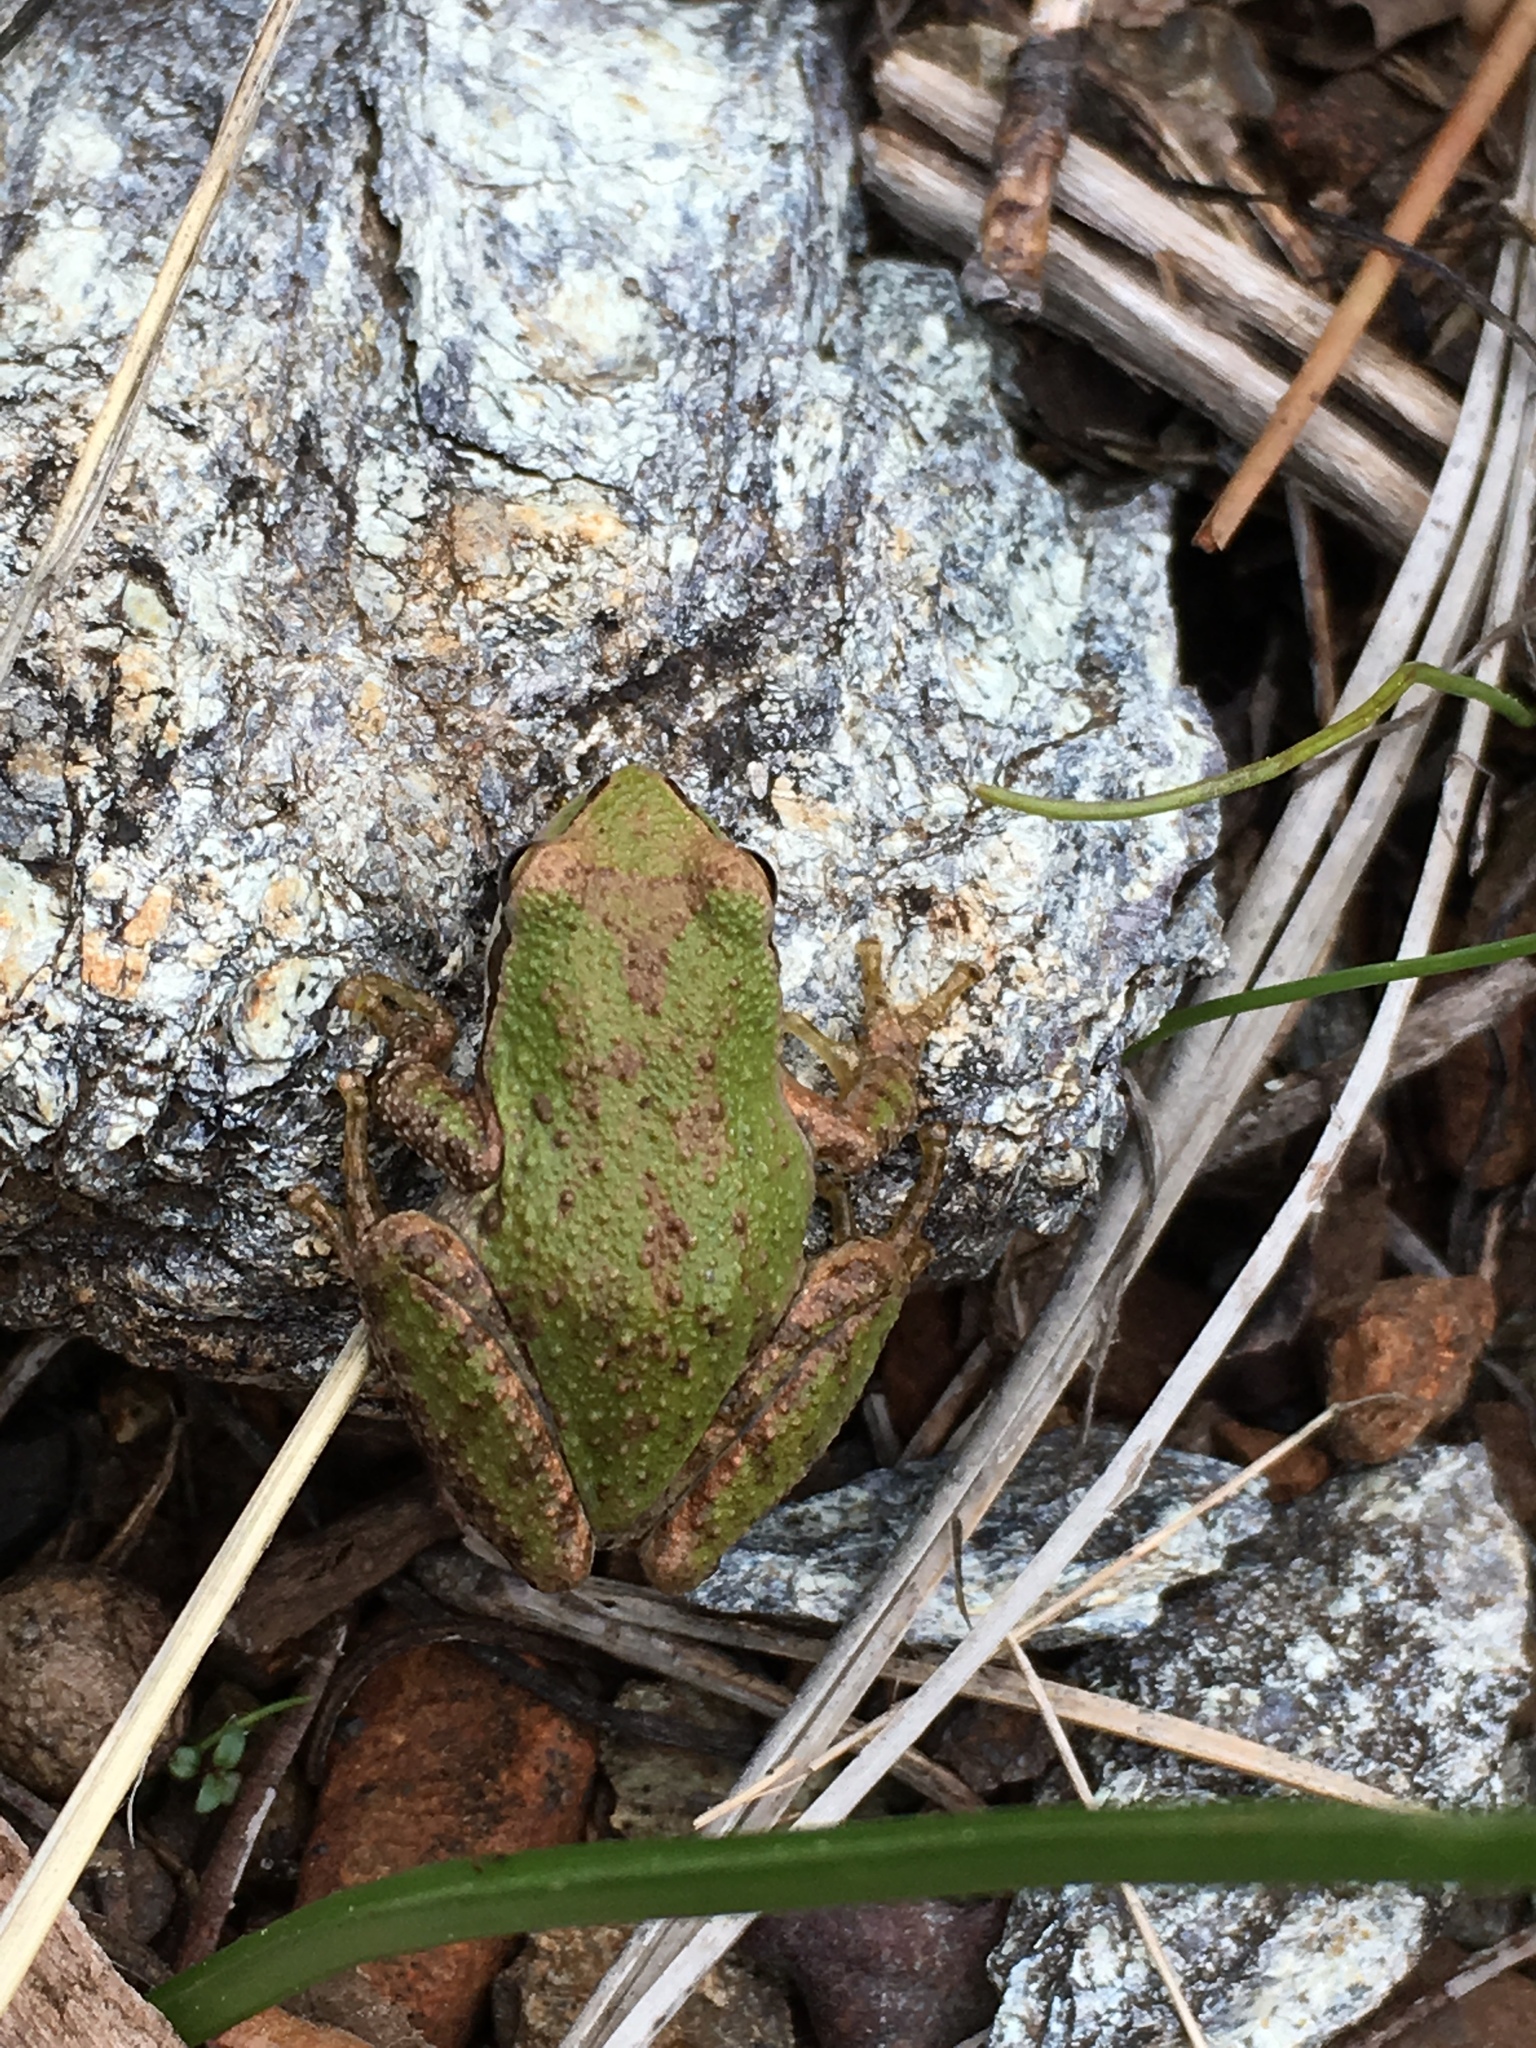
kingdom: Animalia
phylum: Chordata
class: Amphibia
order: Anura
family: Hylidae
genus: Pseudacris
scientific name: Pseudacris regilla
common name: Pacific chorus frog
